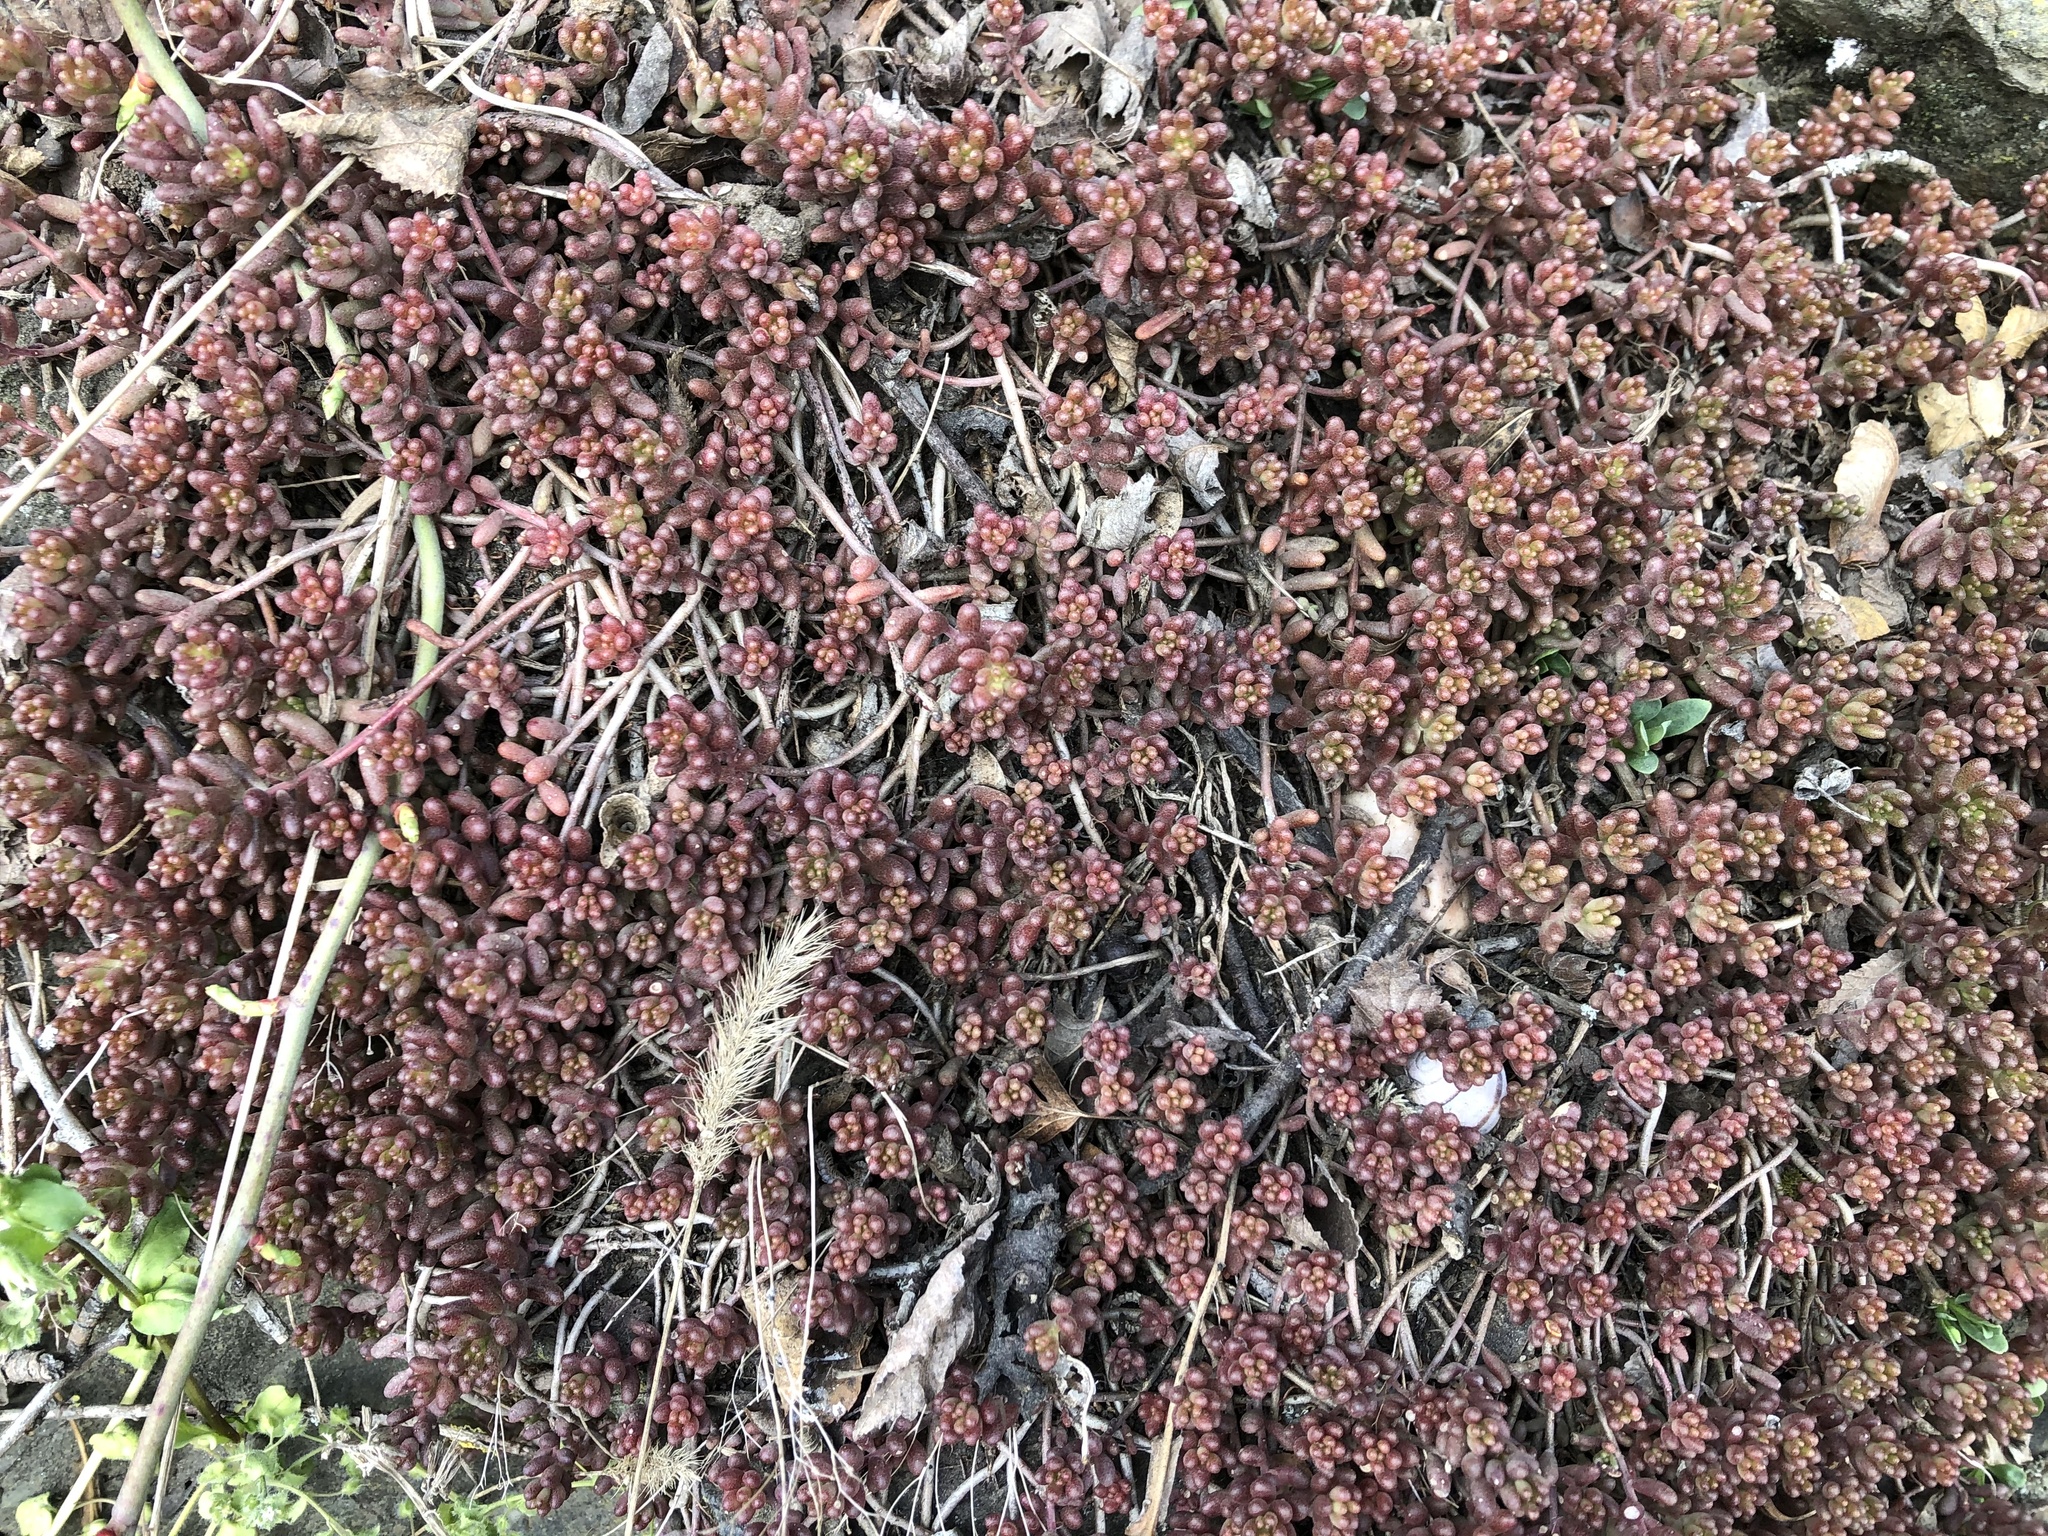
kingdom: Plantae
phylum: Tracheophyta
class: Magnoliopsida
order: Saxifragales
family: Crassulaceae
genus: Sedum
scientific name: Sedum album
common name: White stonecrop
